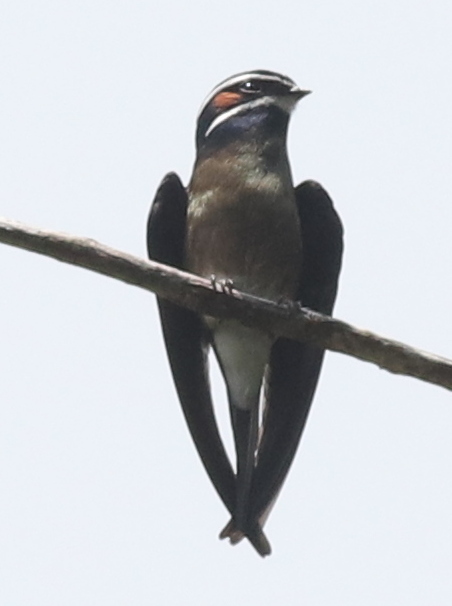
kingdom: Animalia
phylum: Chordata
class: Aves
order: Apodiformes
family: Hemiprocnidae
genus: Hemiprocne
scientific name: Hemiprocne comata
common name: Whiskered treeswift
